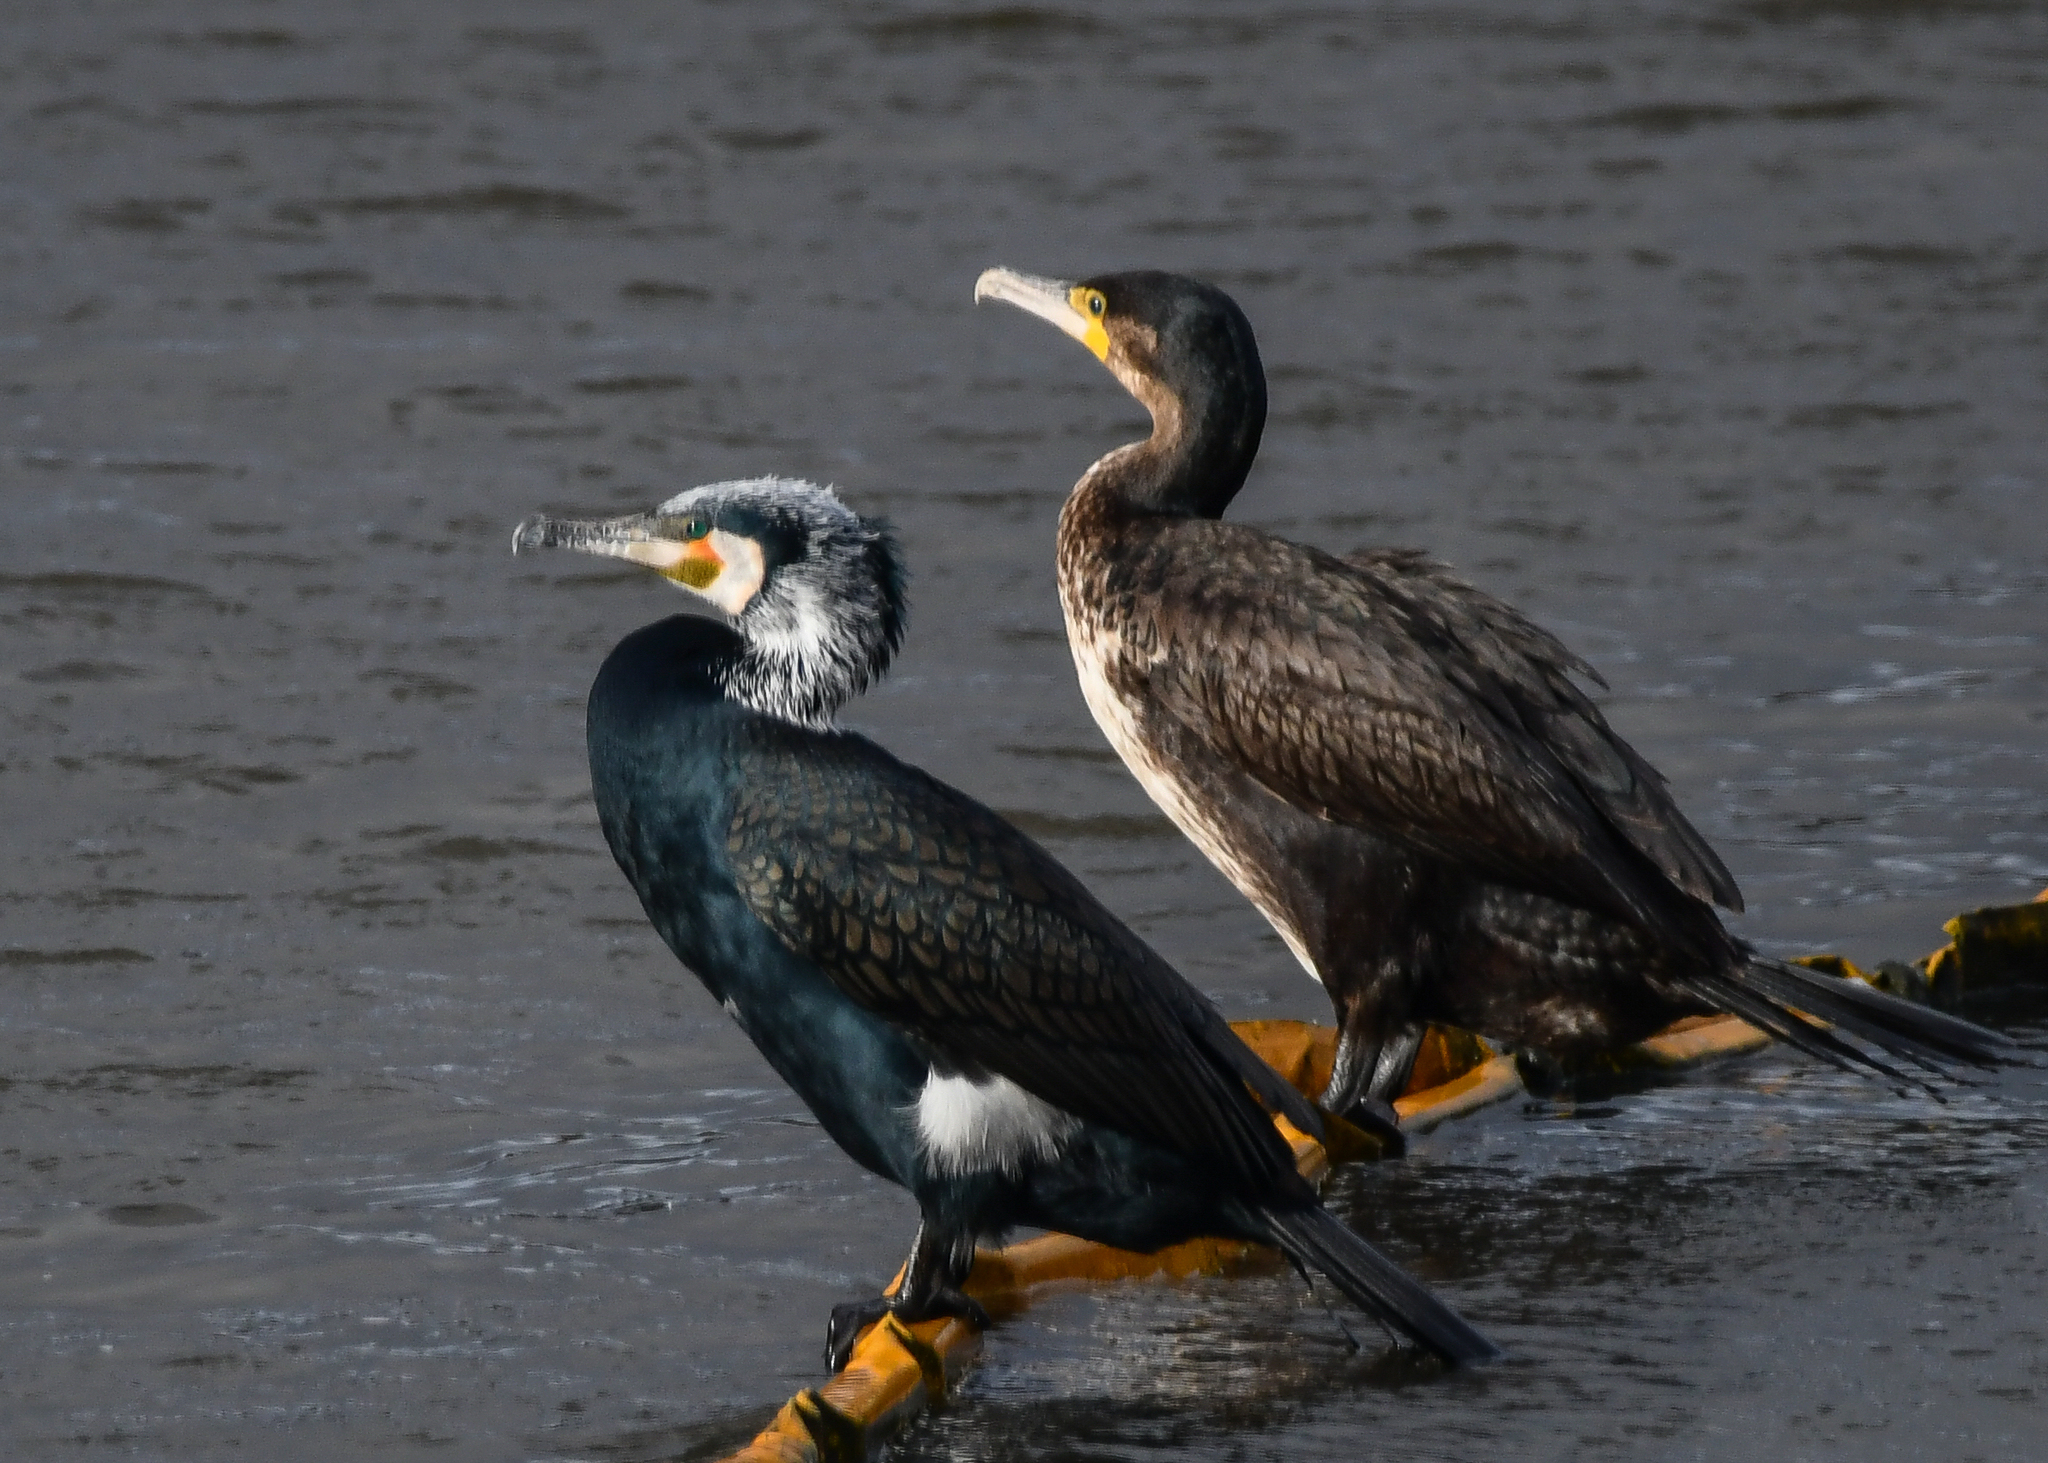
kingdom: Animalia
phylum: Chordata
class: Aves
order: Suliformes
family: Phalacrocoracidae
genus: Phalacrocorax
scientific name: Phalacrocorax carbo
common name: Great cormorant
